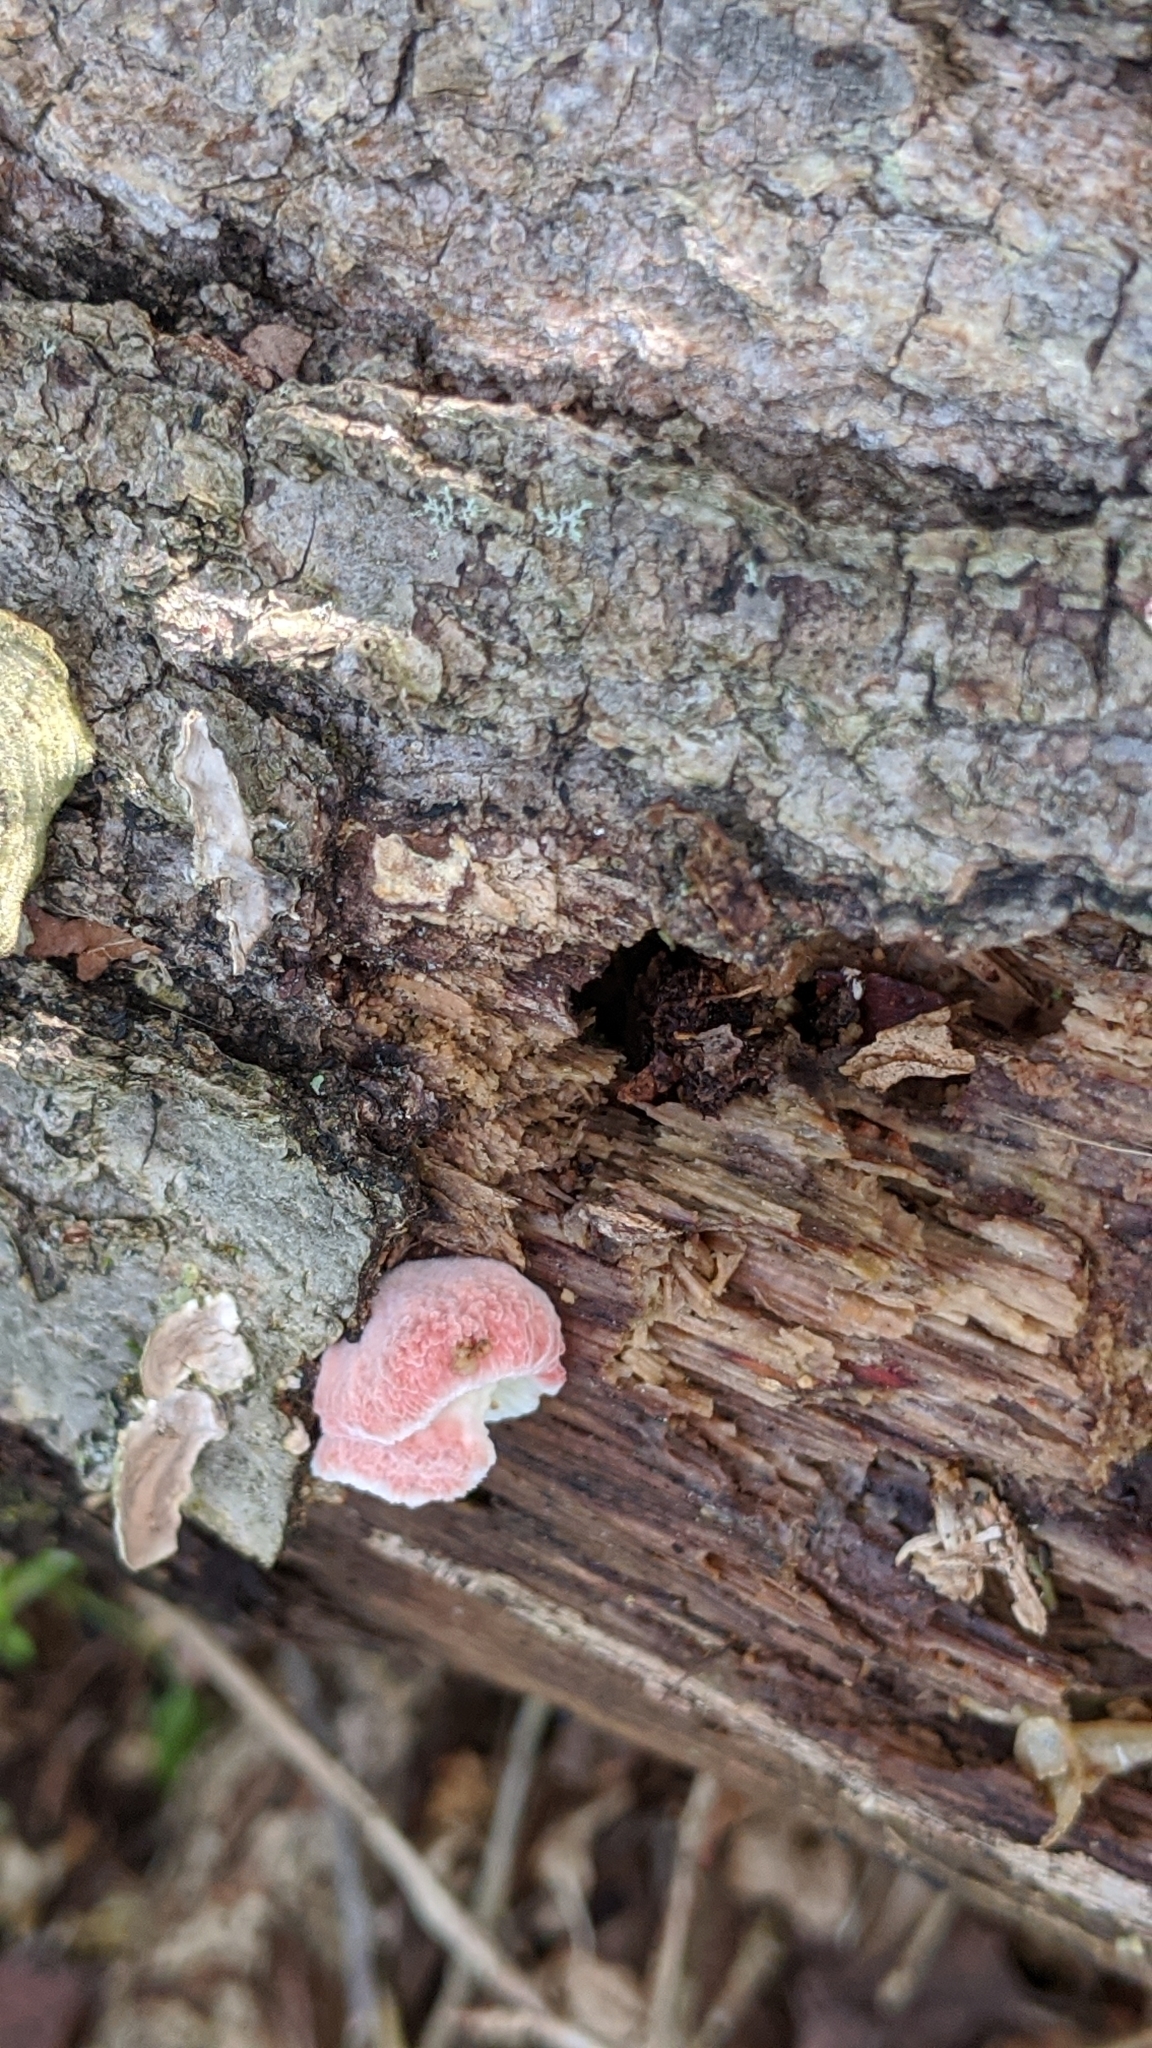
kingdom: Fungi
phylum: Basidiomycota
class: Agaricomycetes
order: Polyporales
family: Irpicaceae
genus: Byssomerulius
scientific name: Byssomerulius incarnatus
